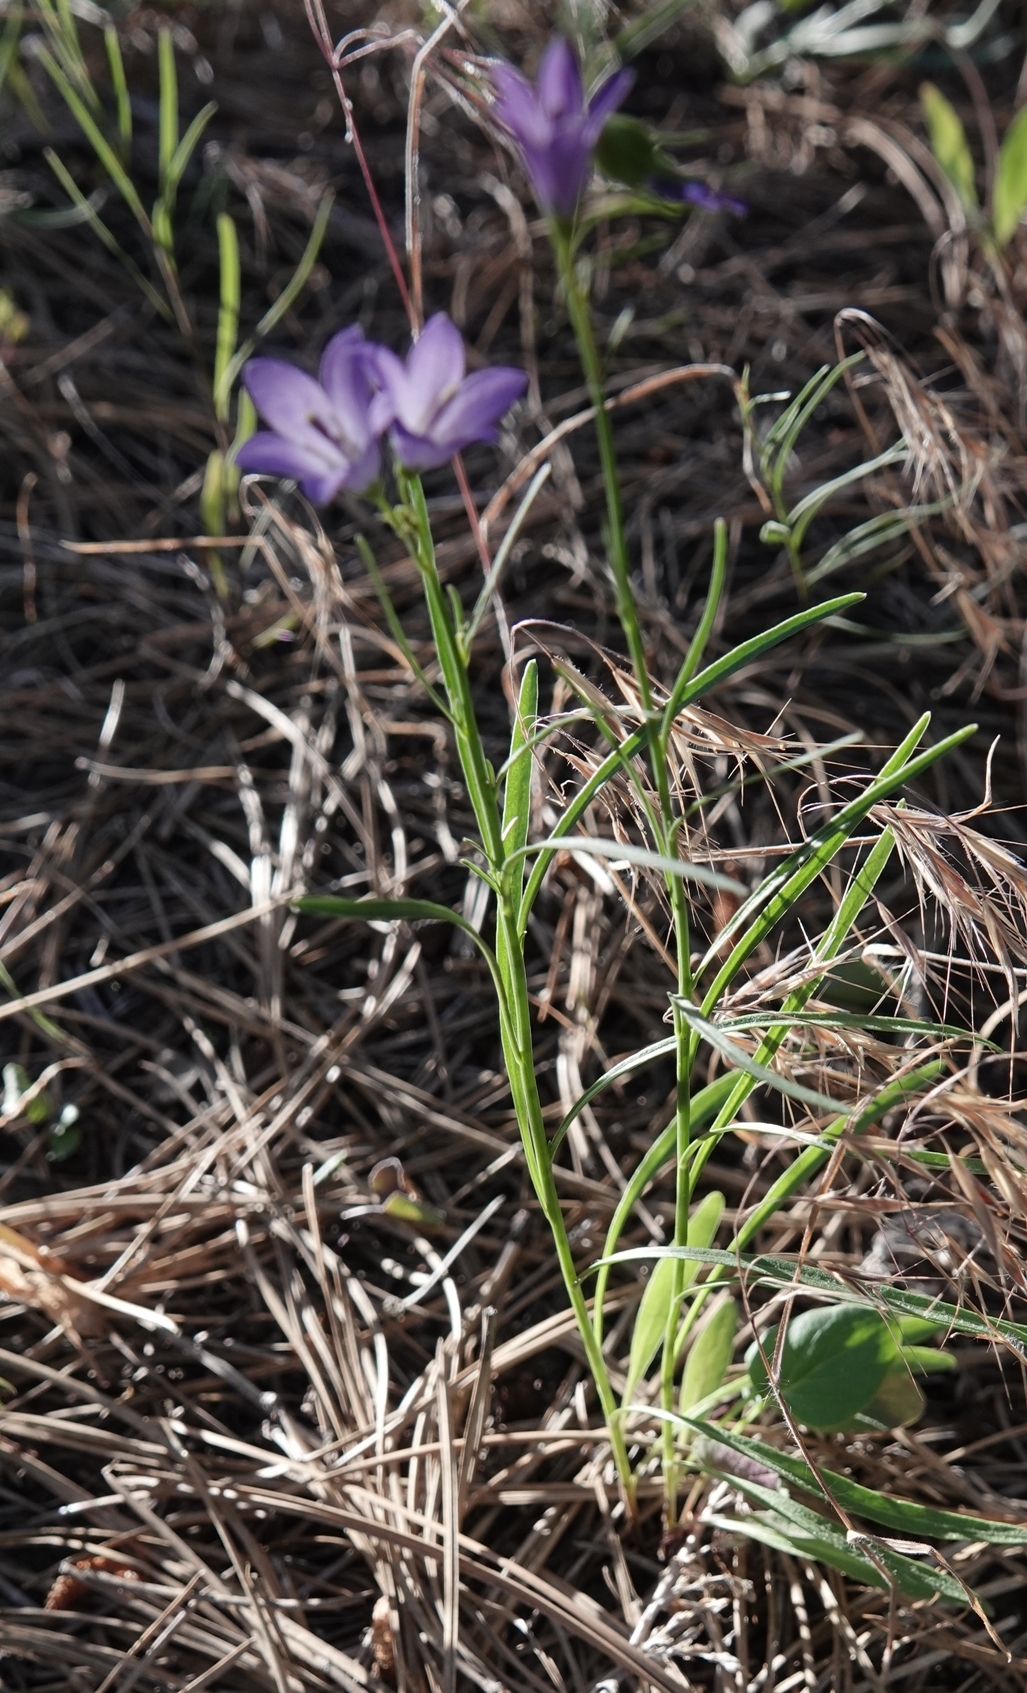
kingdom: Plantae
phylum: Tracheophyta
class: Magnoliopsida
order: Asterales
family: Campanulaceae
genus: Campanula
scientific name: Campanula petiolata
